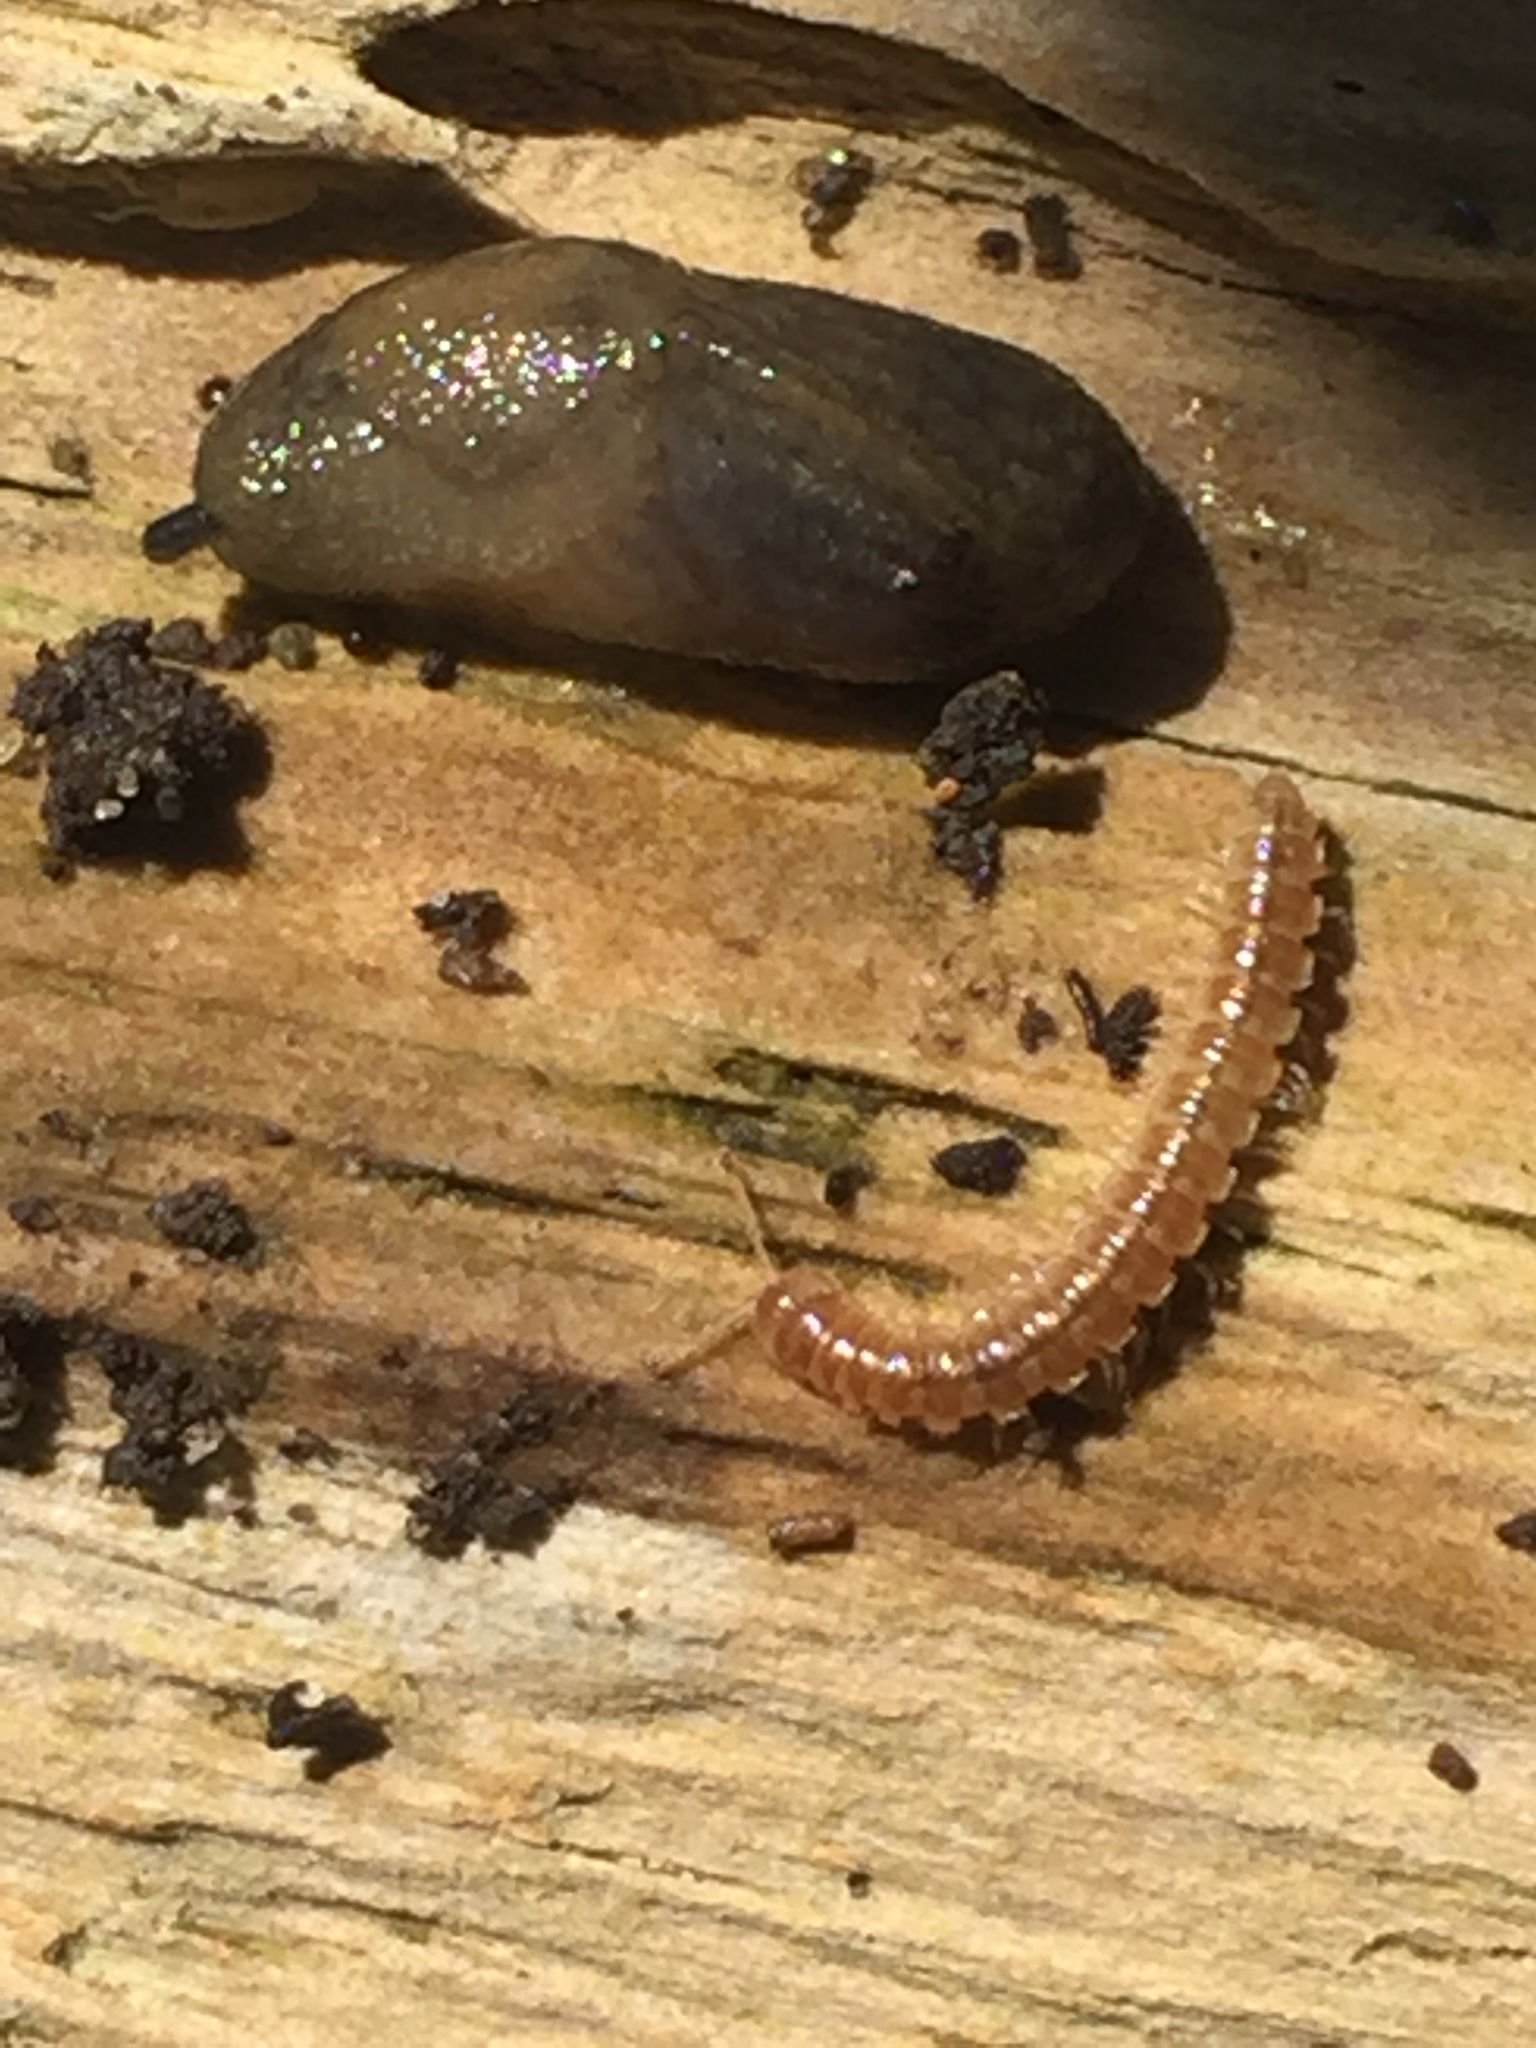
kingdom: Animalia
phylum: Arthropoda
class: Diplopoda
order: Polydesmida
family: Paradoxosomatidae
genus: Oxidus
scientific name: Oxidus gracilis
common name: Greenhouse millipede
